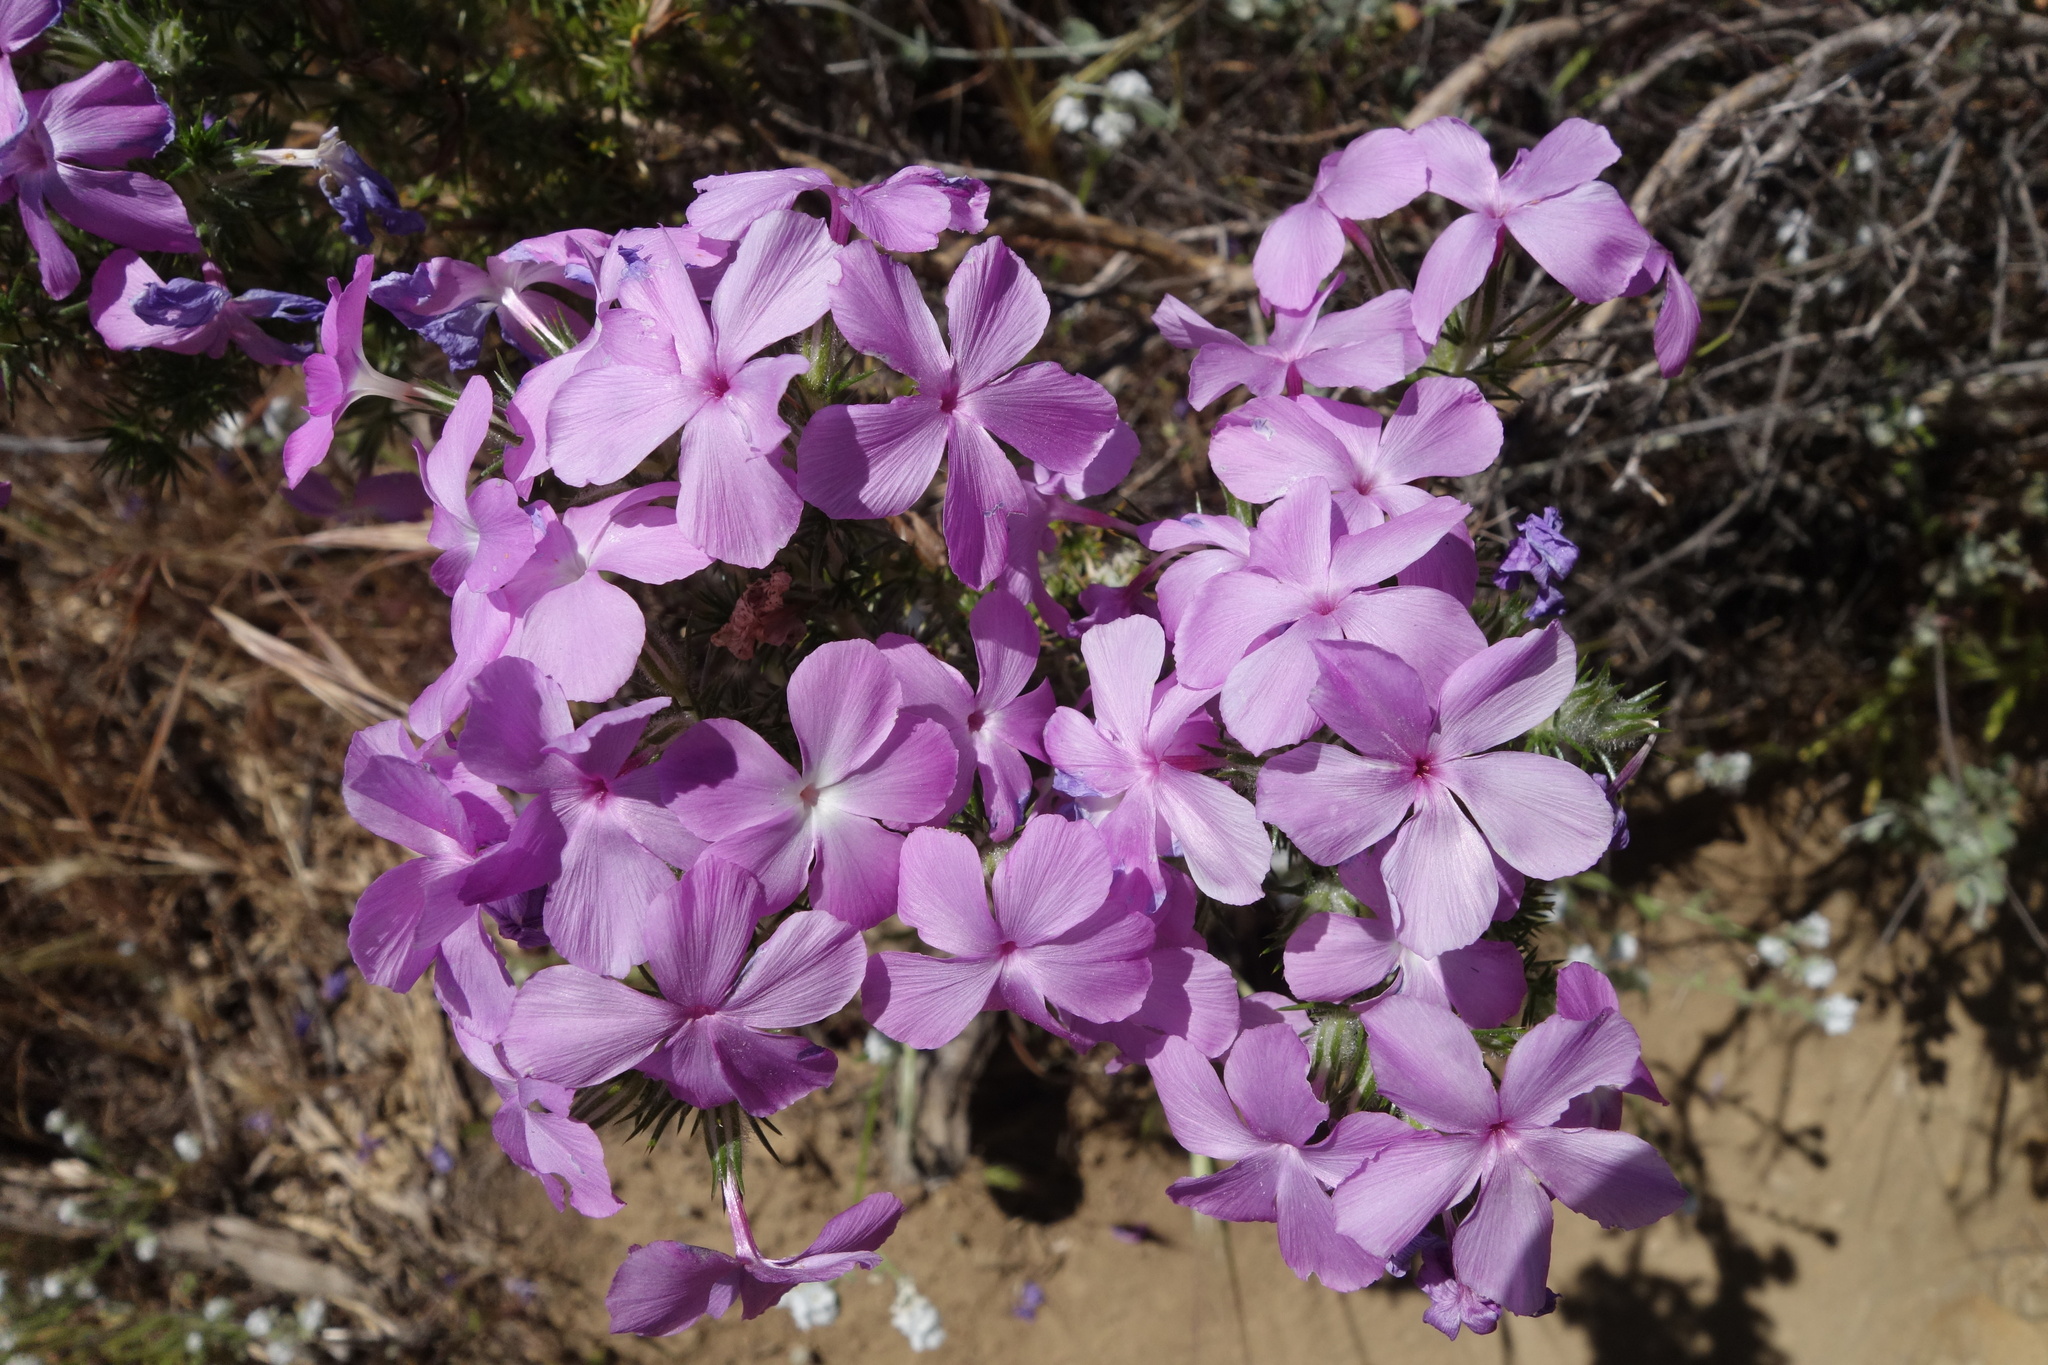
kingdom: Plantae
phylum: Tracheophyta
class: Magnoliopsida
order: Ericales
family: Polemoniaceae
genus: Linanthus
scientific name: Linanthus californicus
